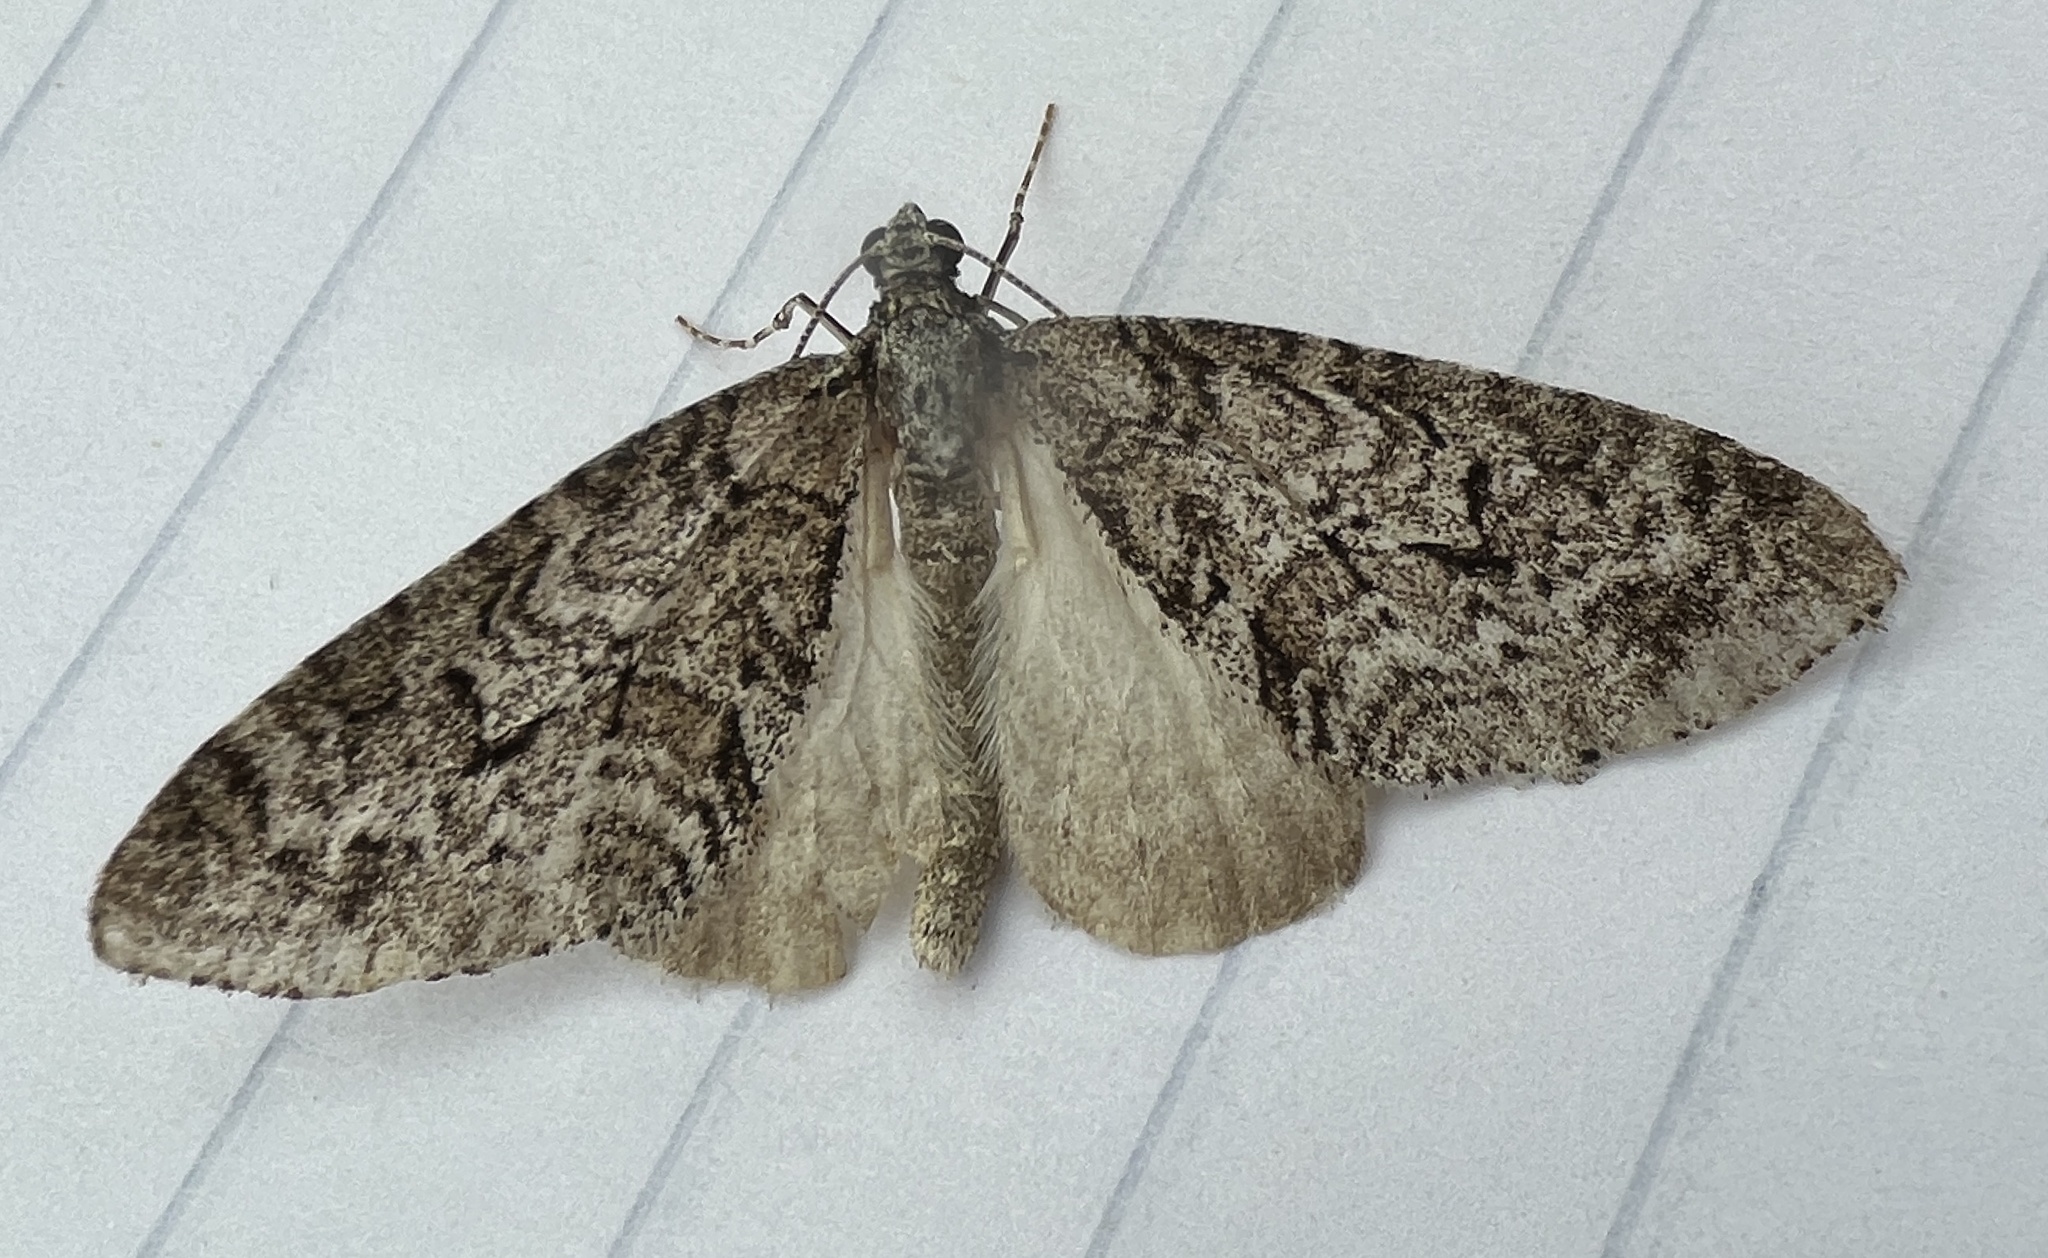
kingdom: Animalia
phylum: Arthropoda
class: Insecta
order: Lepidoptera
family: Geometridae
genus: Cladara
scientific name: Cladara limitaria
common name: Mottled gray carpet
